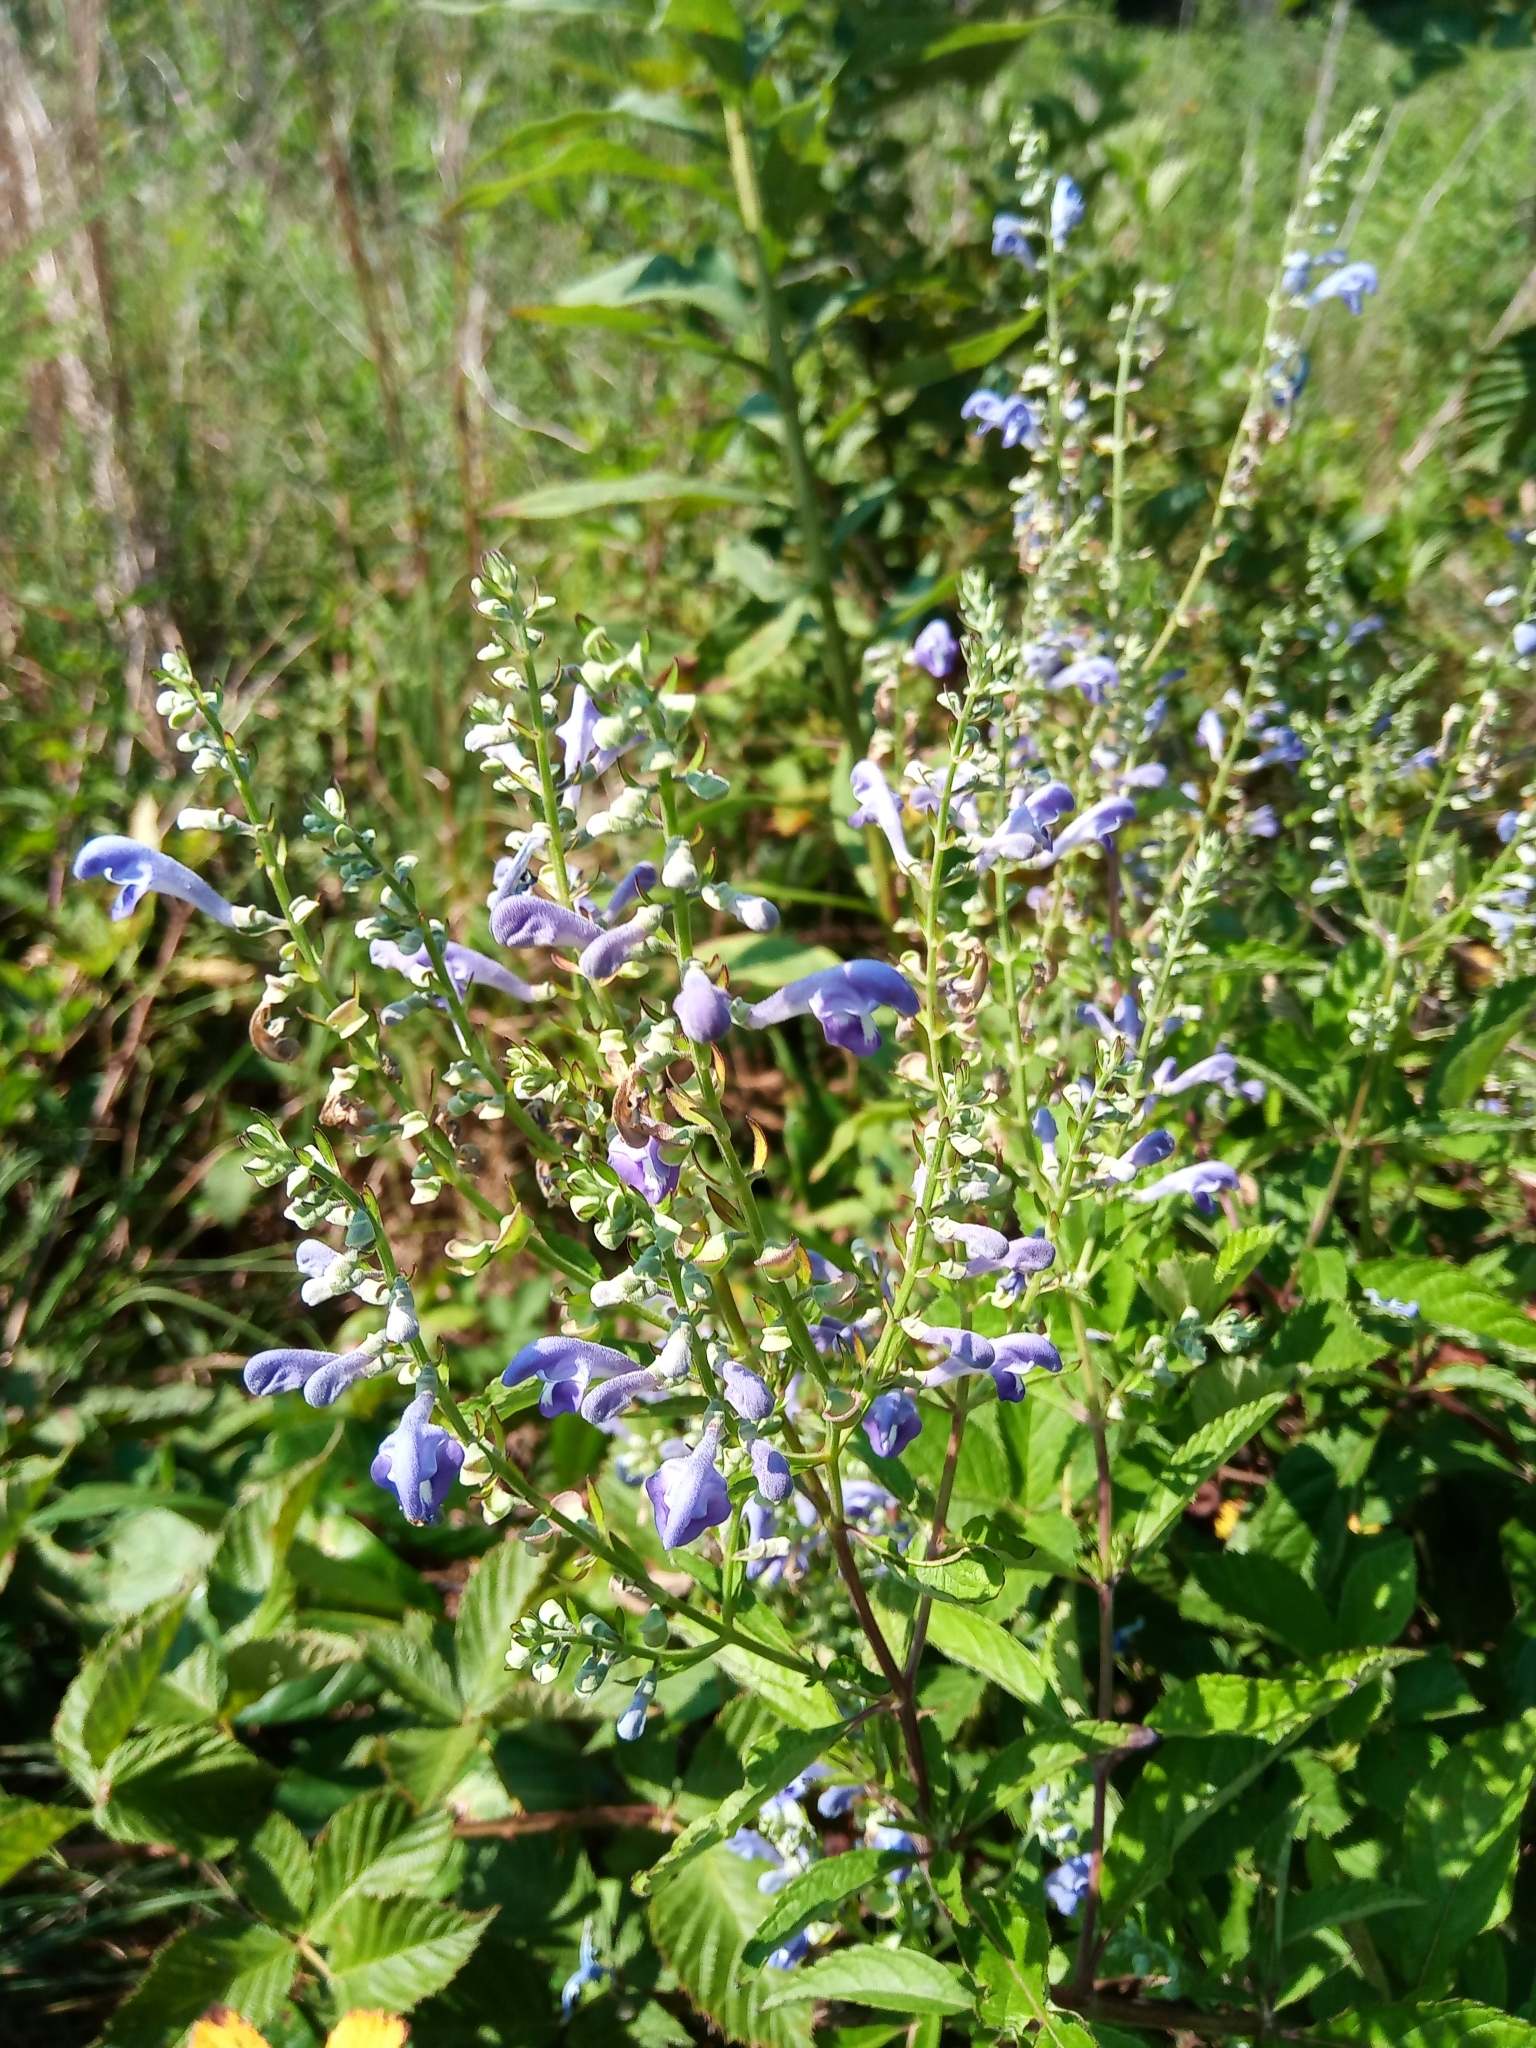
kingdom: Plantae
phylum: Tracheophyta
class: Magnoliopsida
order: Lamiales
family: Lamiaceae
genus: Scutellaria
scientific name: Scutellaria incana
